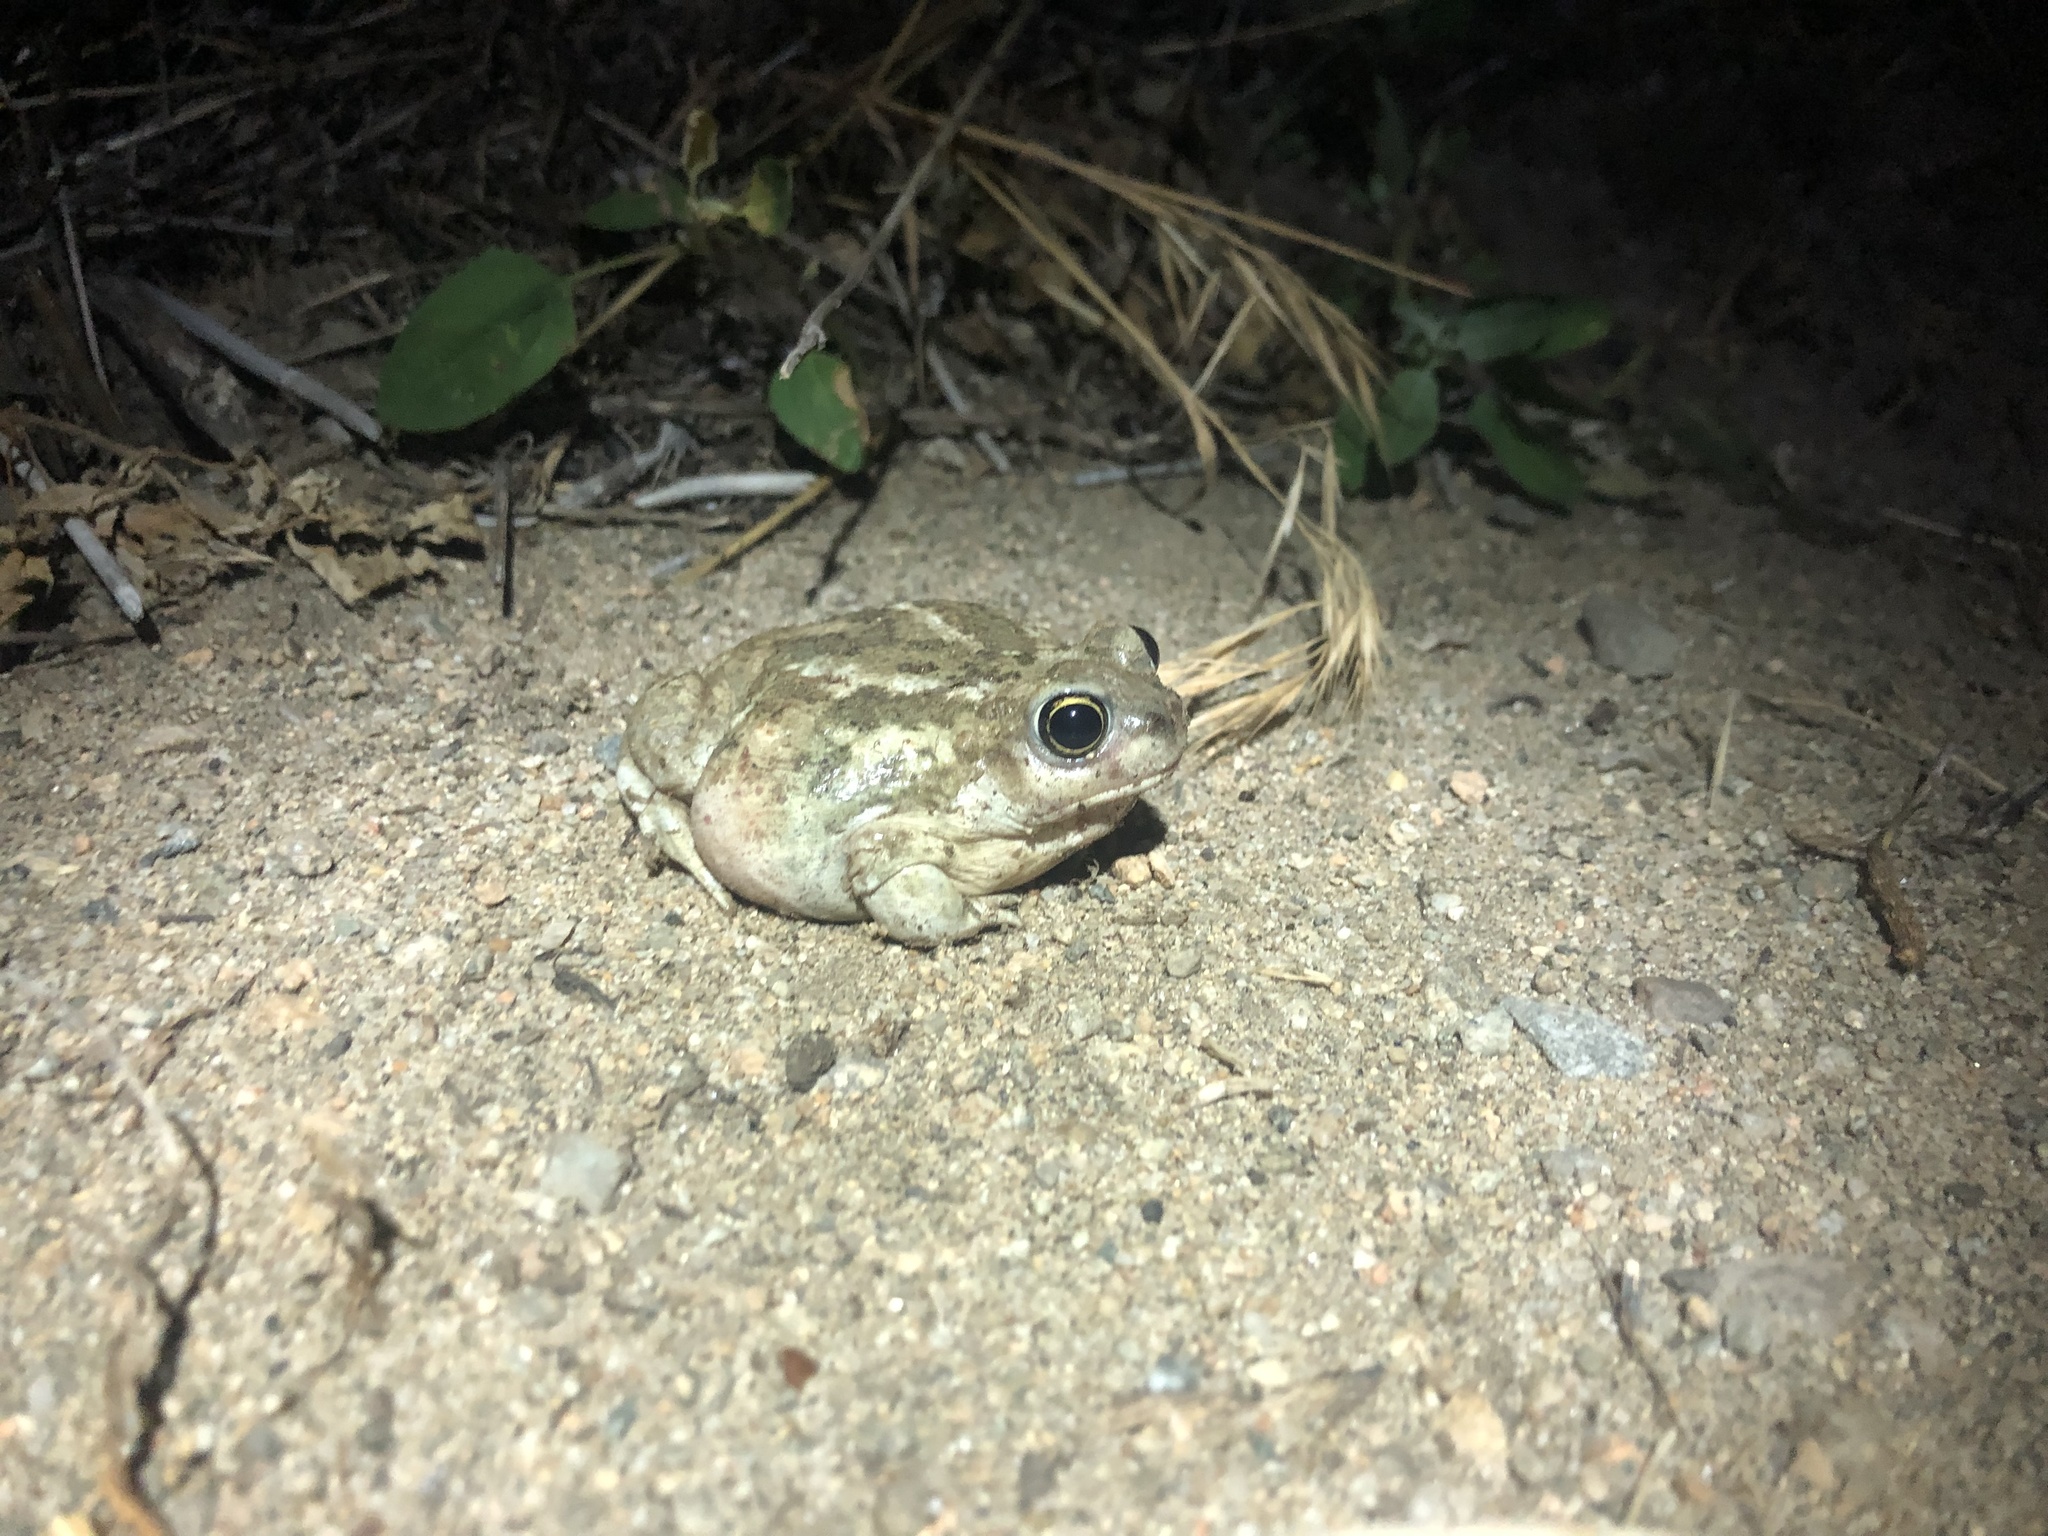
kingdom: Animalia
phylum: Chordata
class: Amphibia
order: Anura
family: Scaphiopodidae
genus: Spea
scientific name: Spea intermontana
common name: Great basin spadefoot
